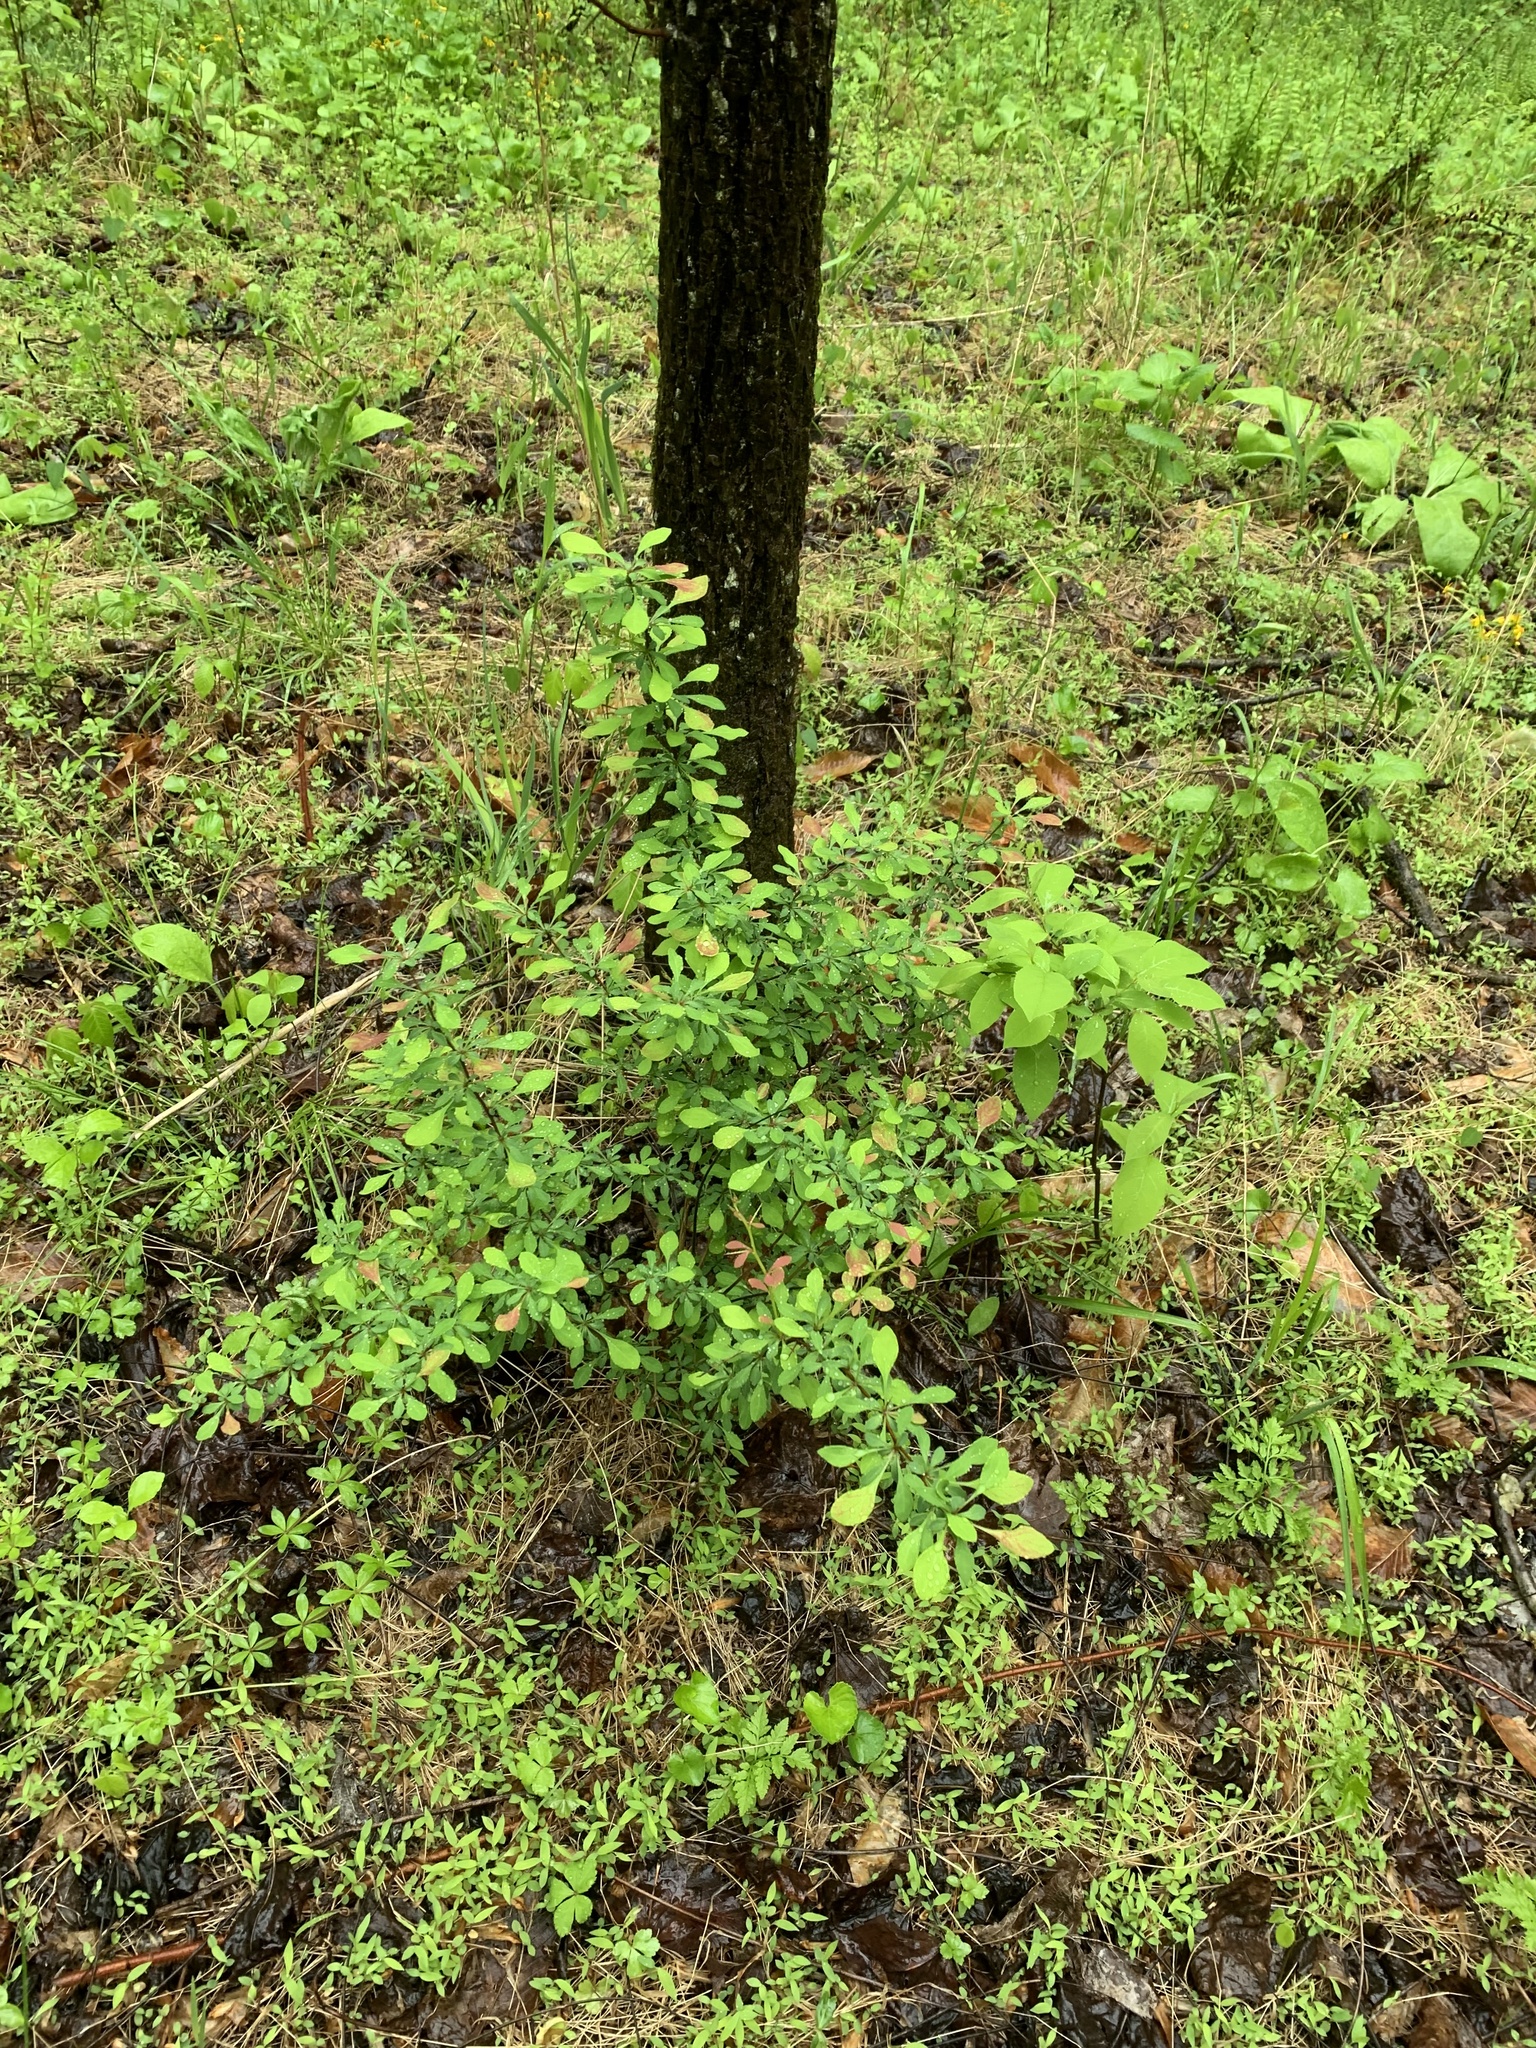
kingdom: Plantae
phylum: Tracheophyta
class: Magnoliopsida
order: Ranunculales
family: Berberidaceae
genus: Berberis
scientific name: Berberis thunbergii
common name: Japanese barberry
